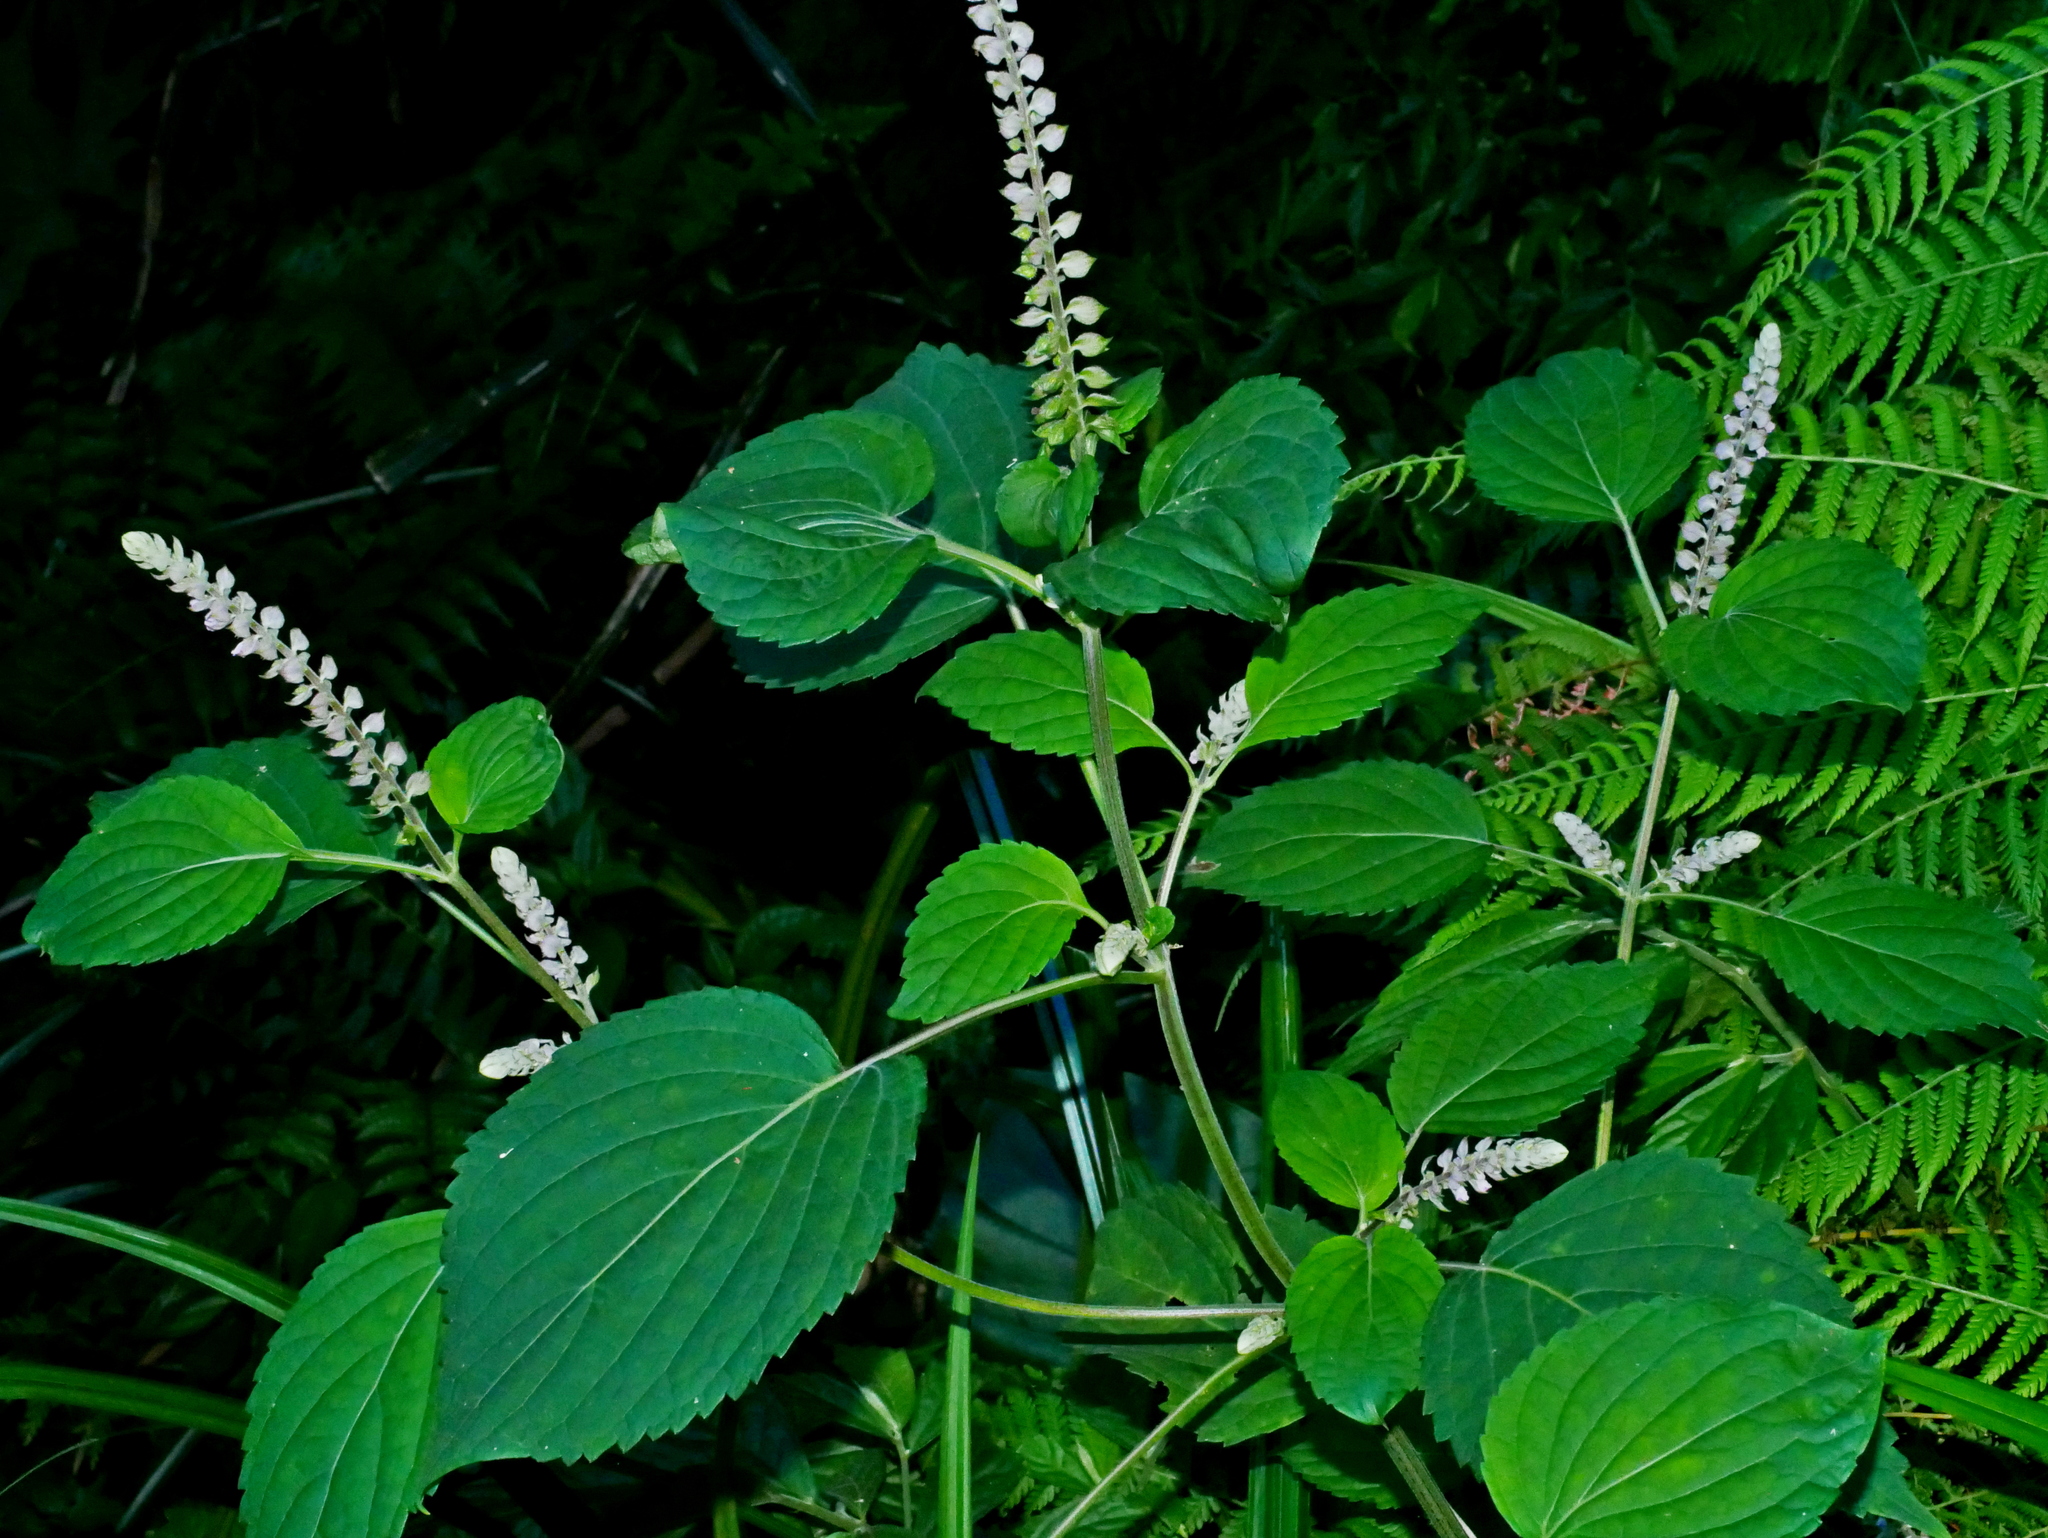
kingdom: Plantae
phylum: Tracheophyta
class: Magnoliopsida
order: Lamiales
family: Lamiaceae
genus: Collinsonia
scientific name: Collinsonia macrobracteata
